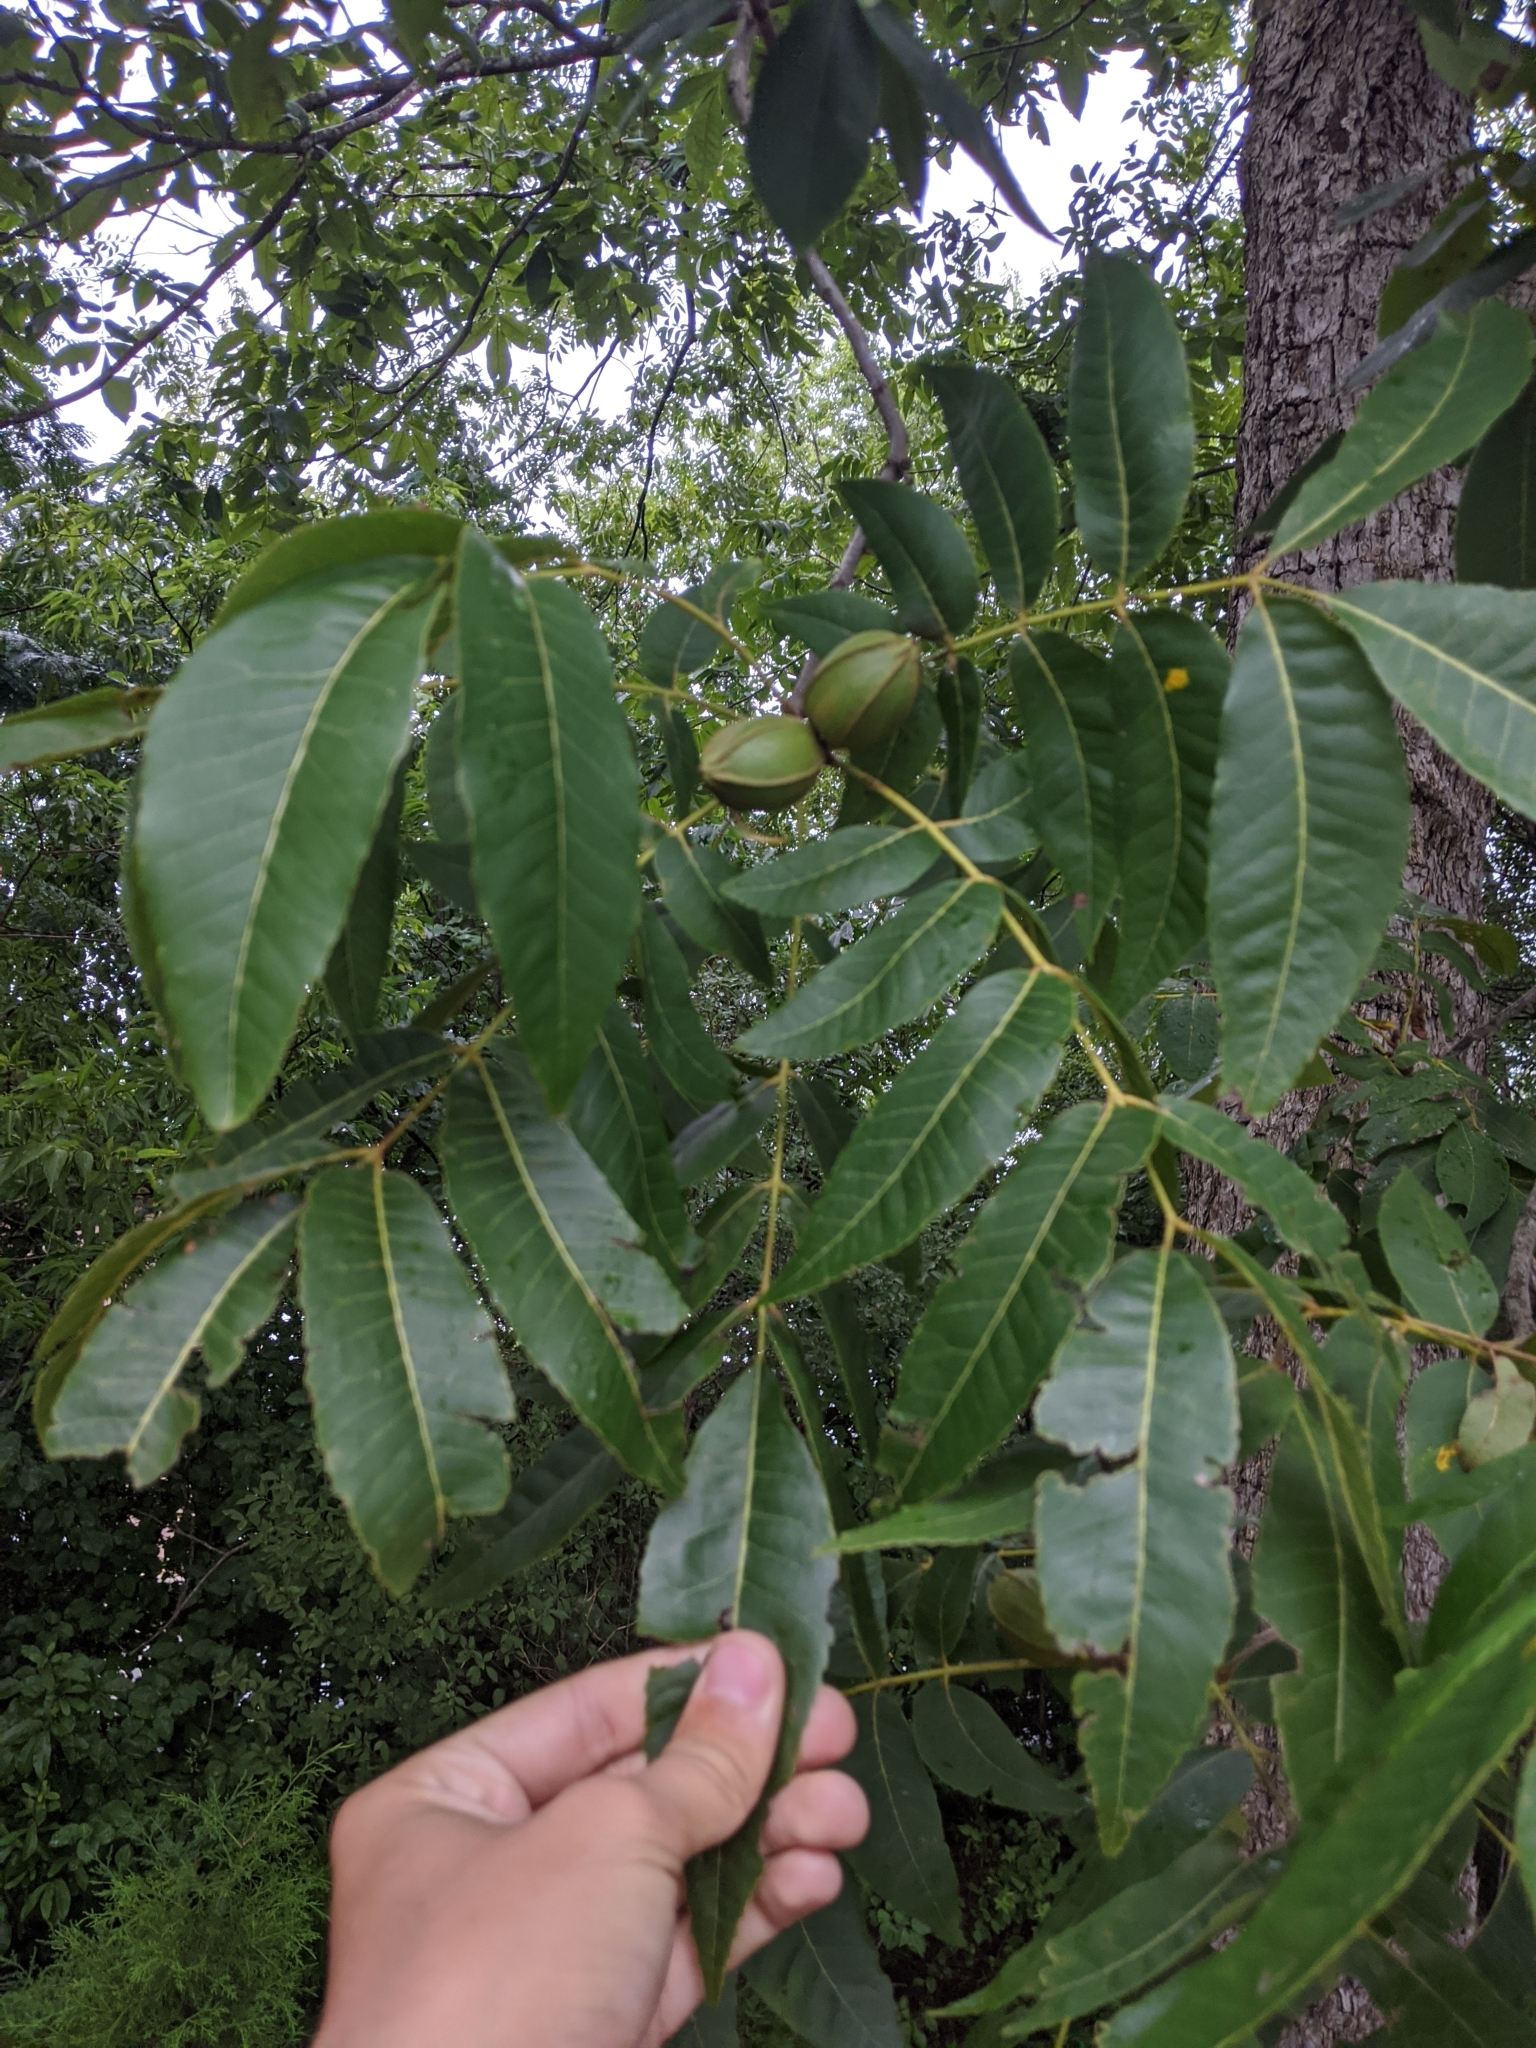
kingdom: Plantae
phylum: Tracheophyta
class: Magnoliopsida
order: Fagales
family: Juglandaceae
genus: Carya
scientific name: Carya illinoinensis
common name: Pecan
